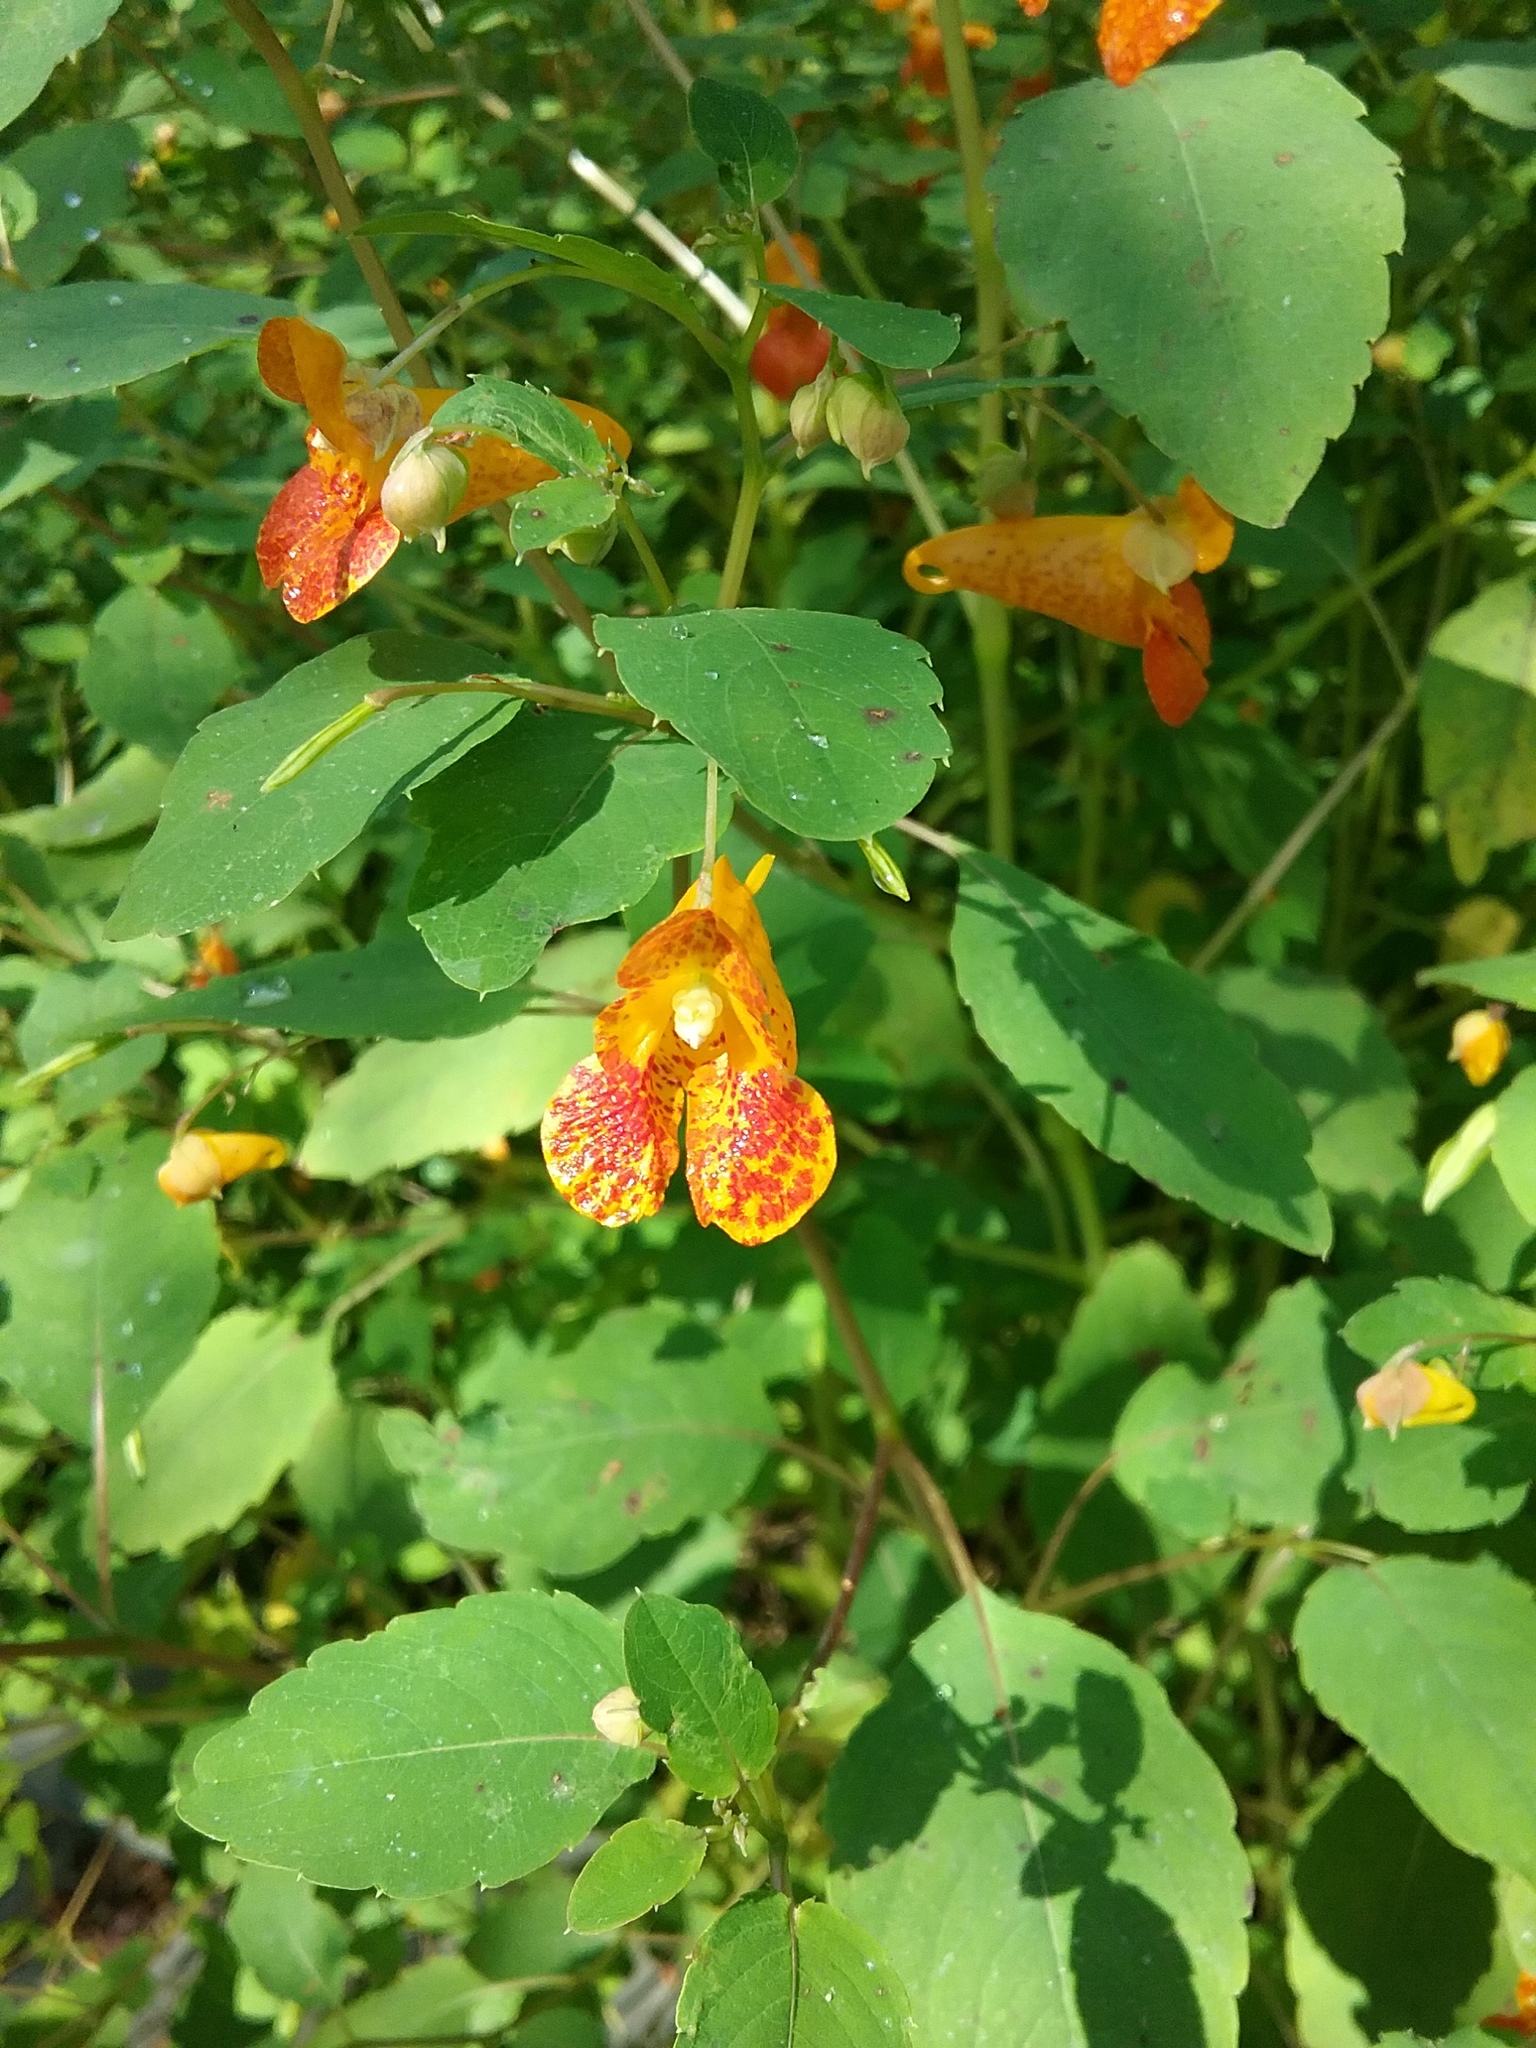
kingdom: Plantae
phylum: Tracheophyta
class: Magnoliopsida
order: Ericales
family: Balsaminaceae
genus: Impatiens
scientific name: Impatiens capensis
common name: Orange balsam
